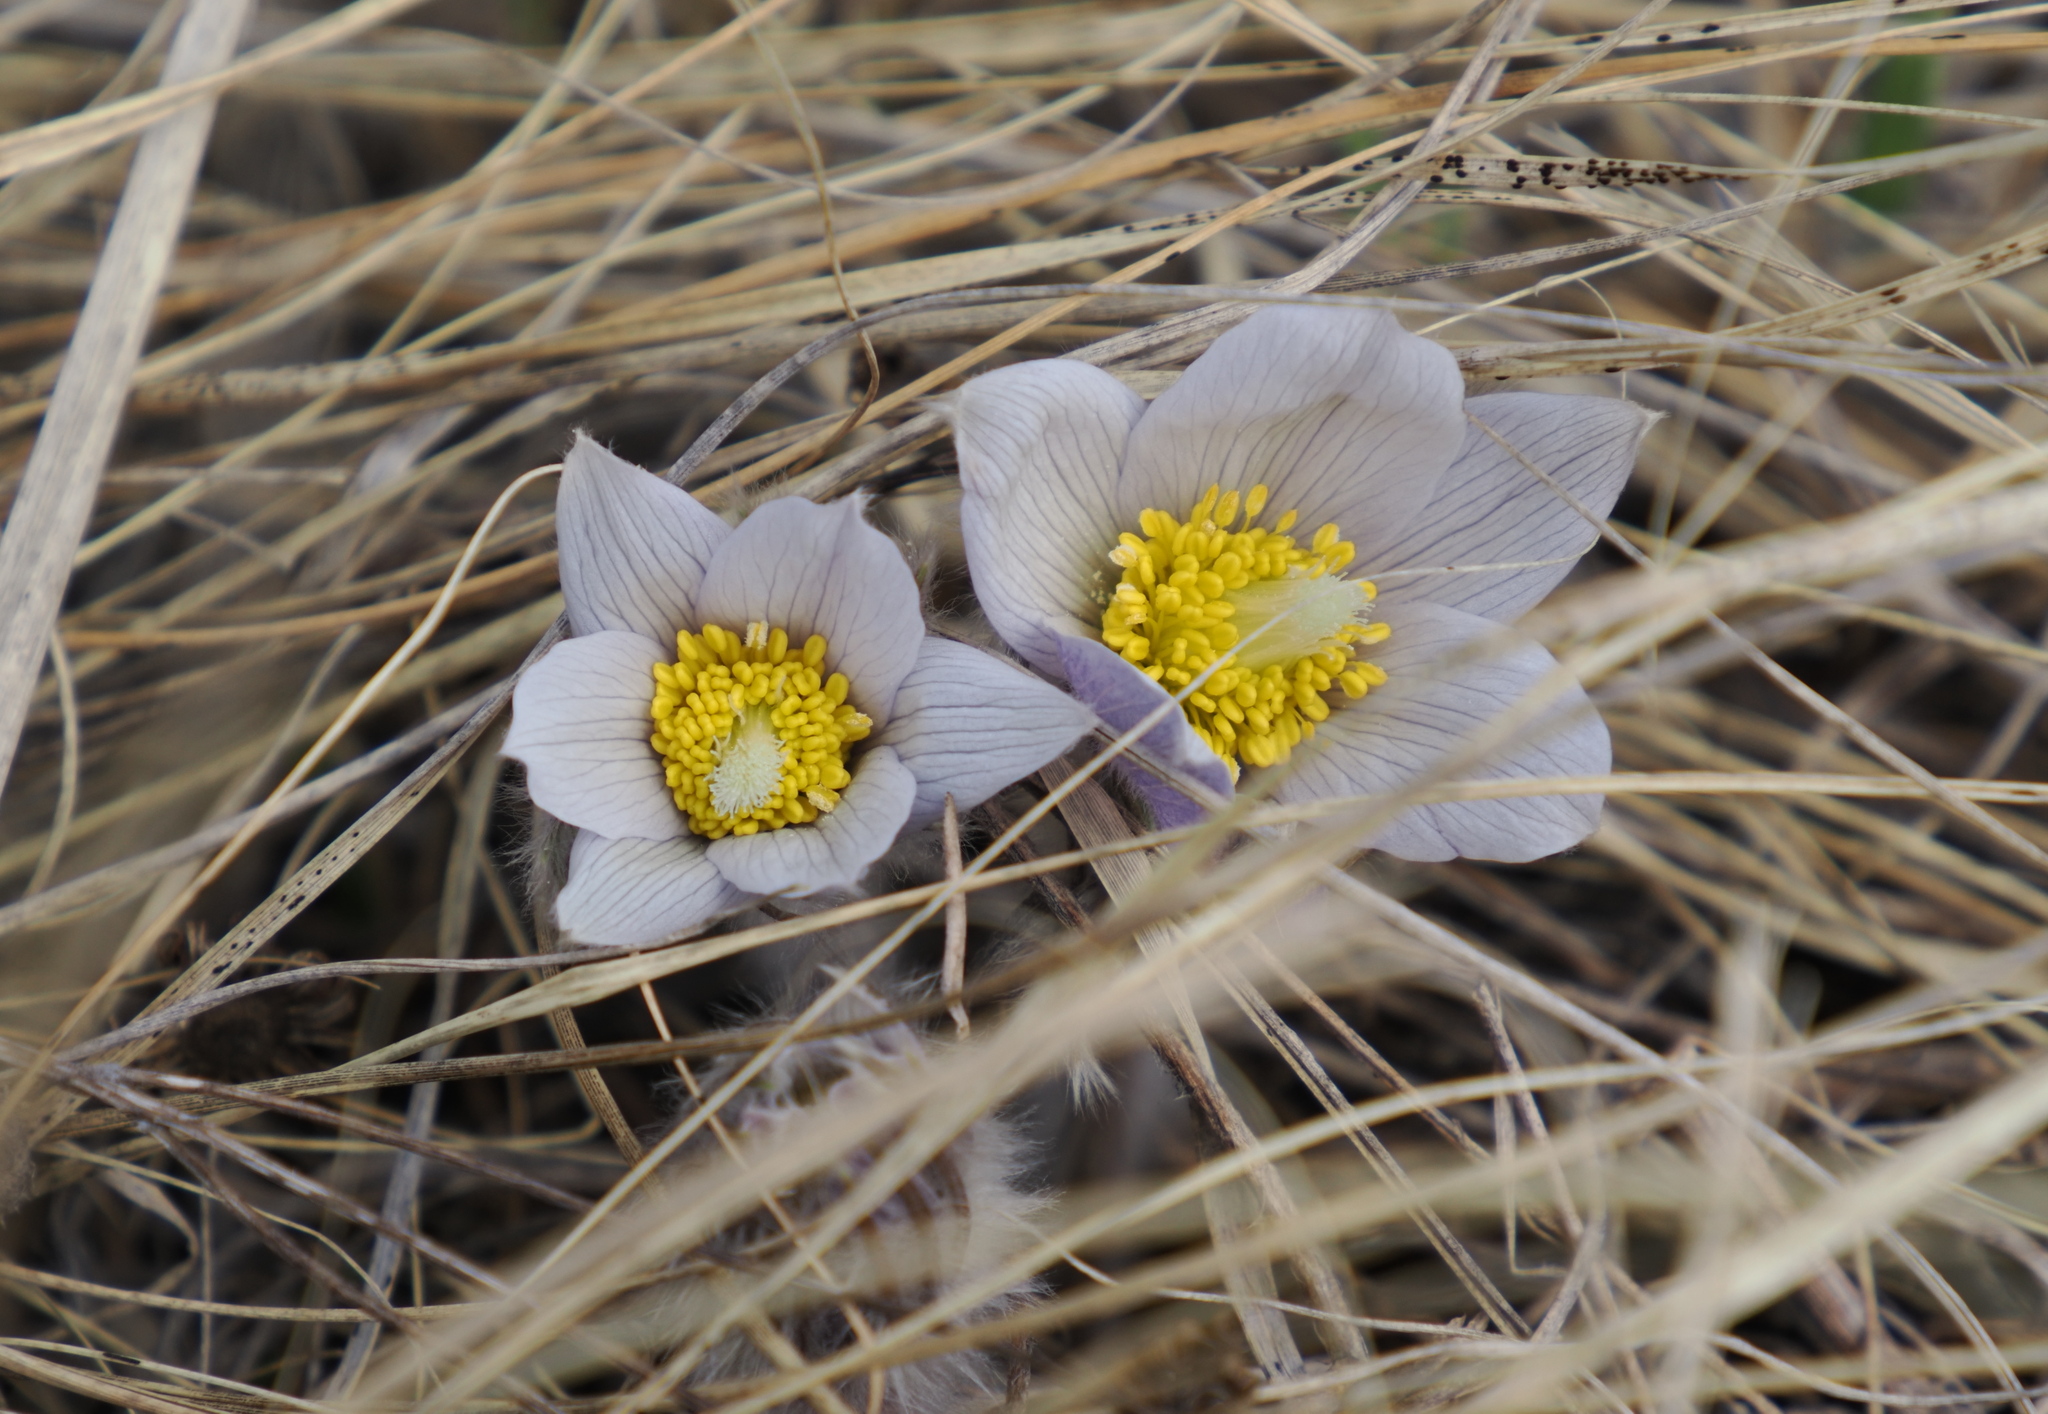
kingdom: Plantae
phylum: Tracheophyta
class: Magnoliopsida
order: Ranunculales
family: Ranunculaceae
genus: Pulsatilla
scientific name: Pulsatilla nuttalliana
